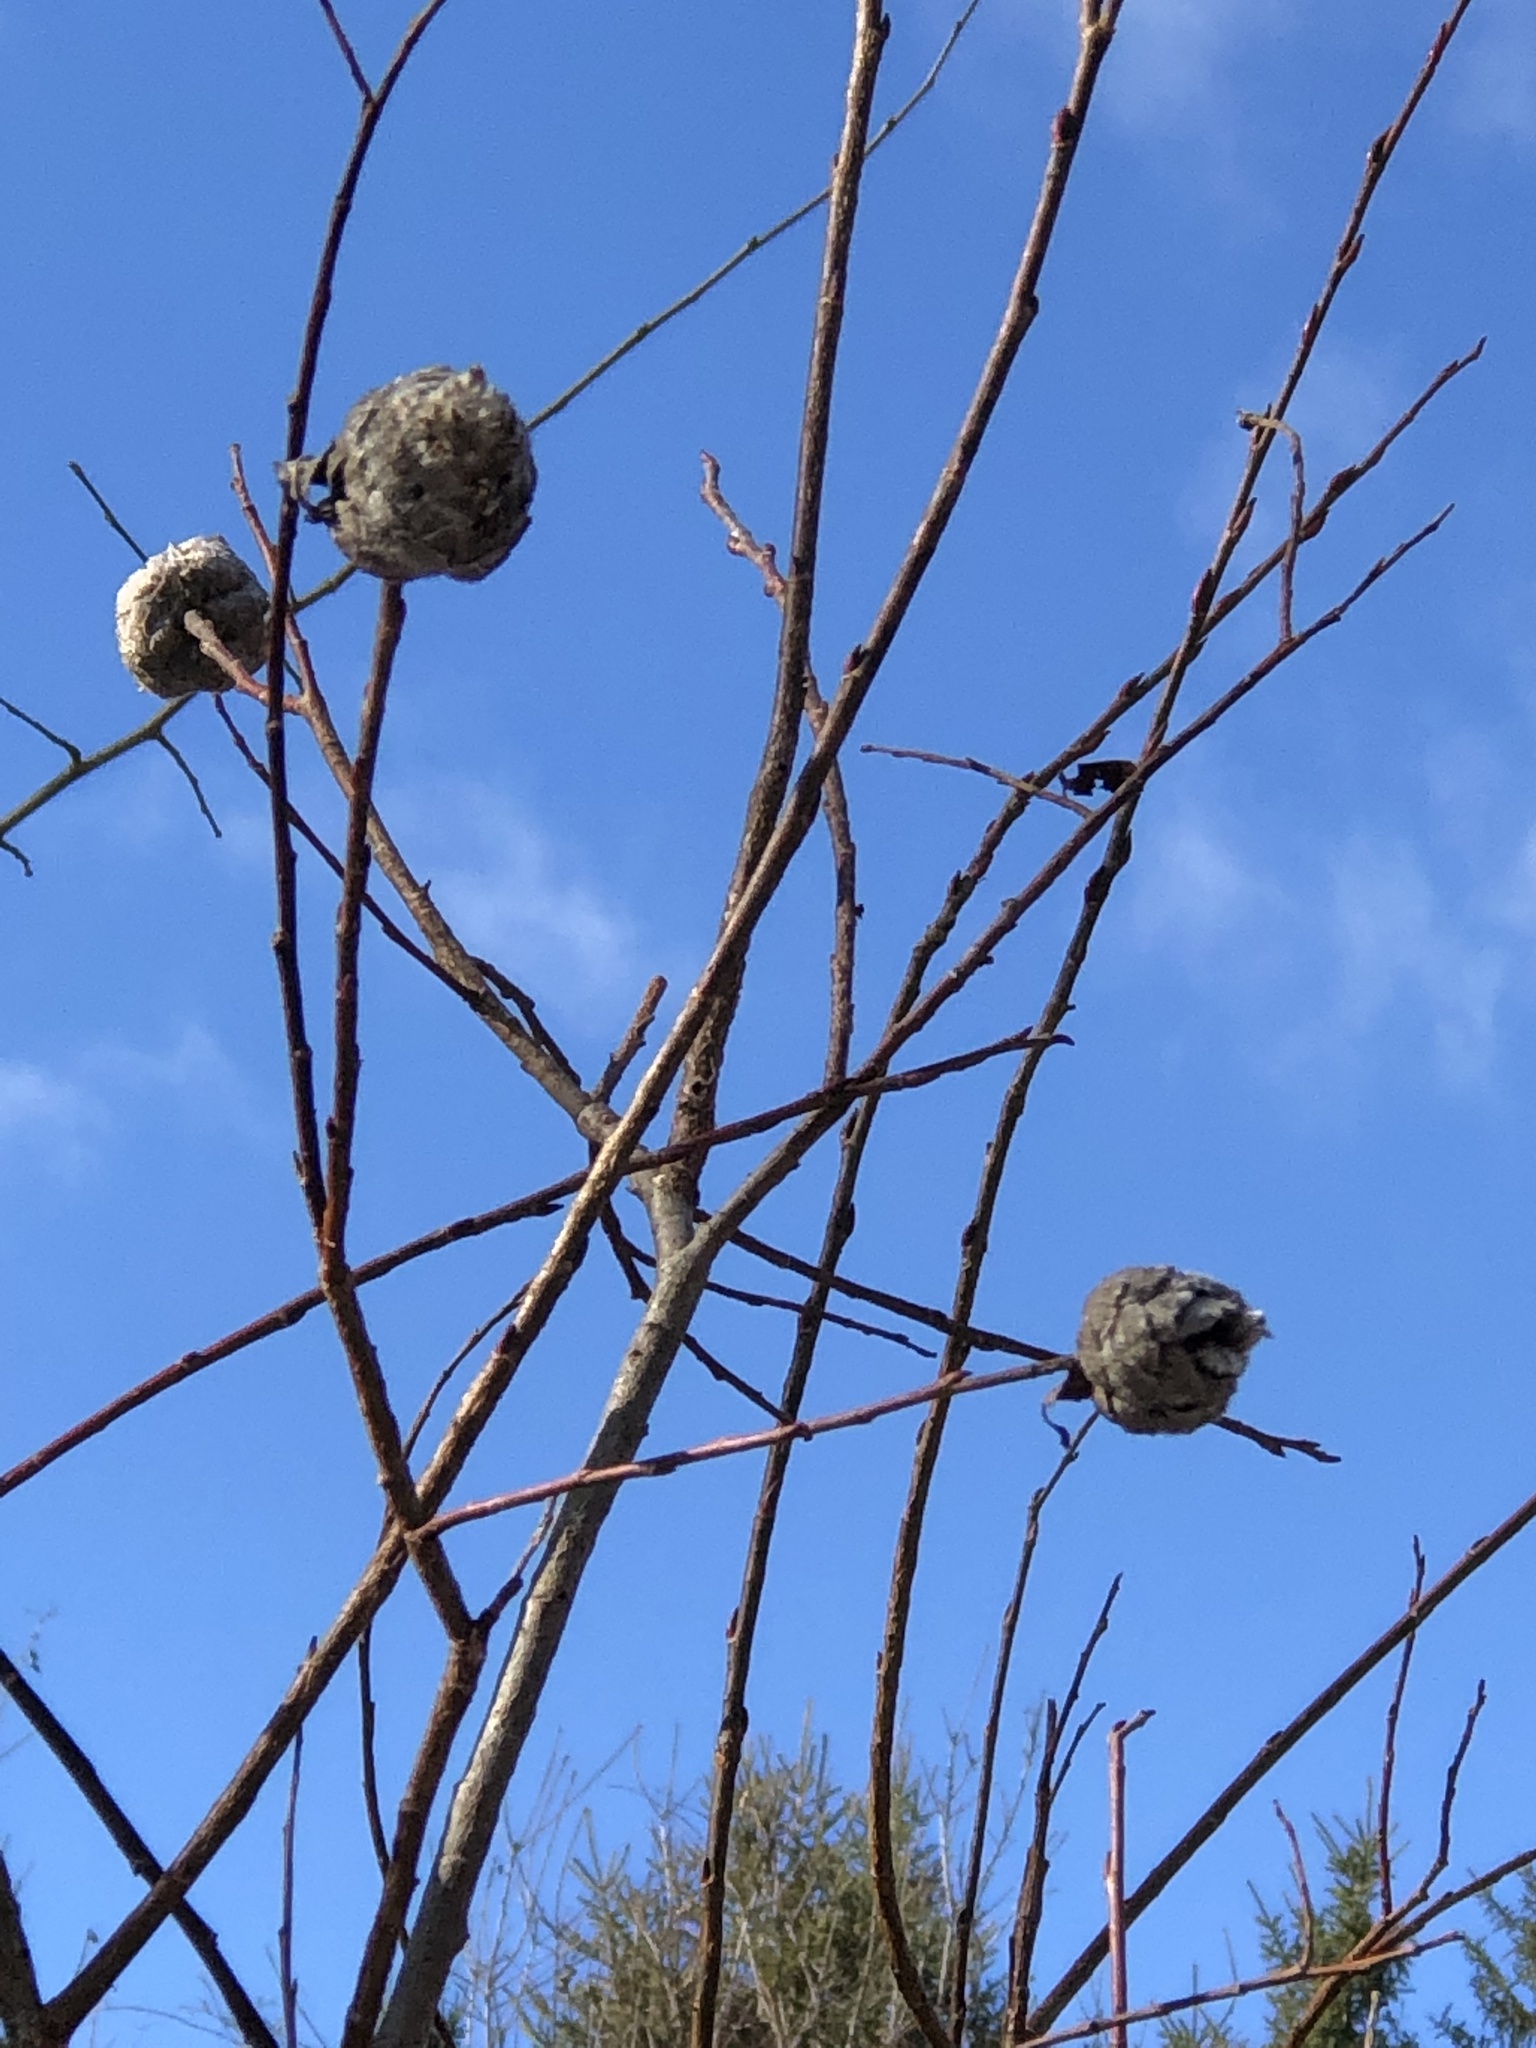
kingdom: Animalia
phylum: Arthropoda
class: Insecta
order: Diptera
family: Cecidomyiidae
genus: Rabdophaga
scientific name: Rabdophaga strobiloides
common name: Willow pinecone gall midge
